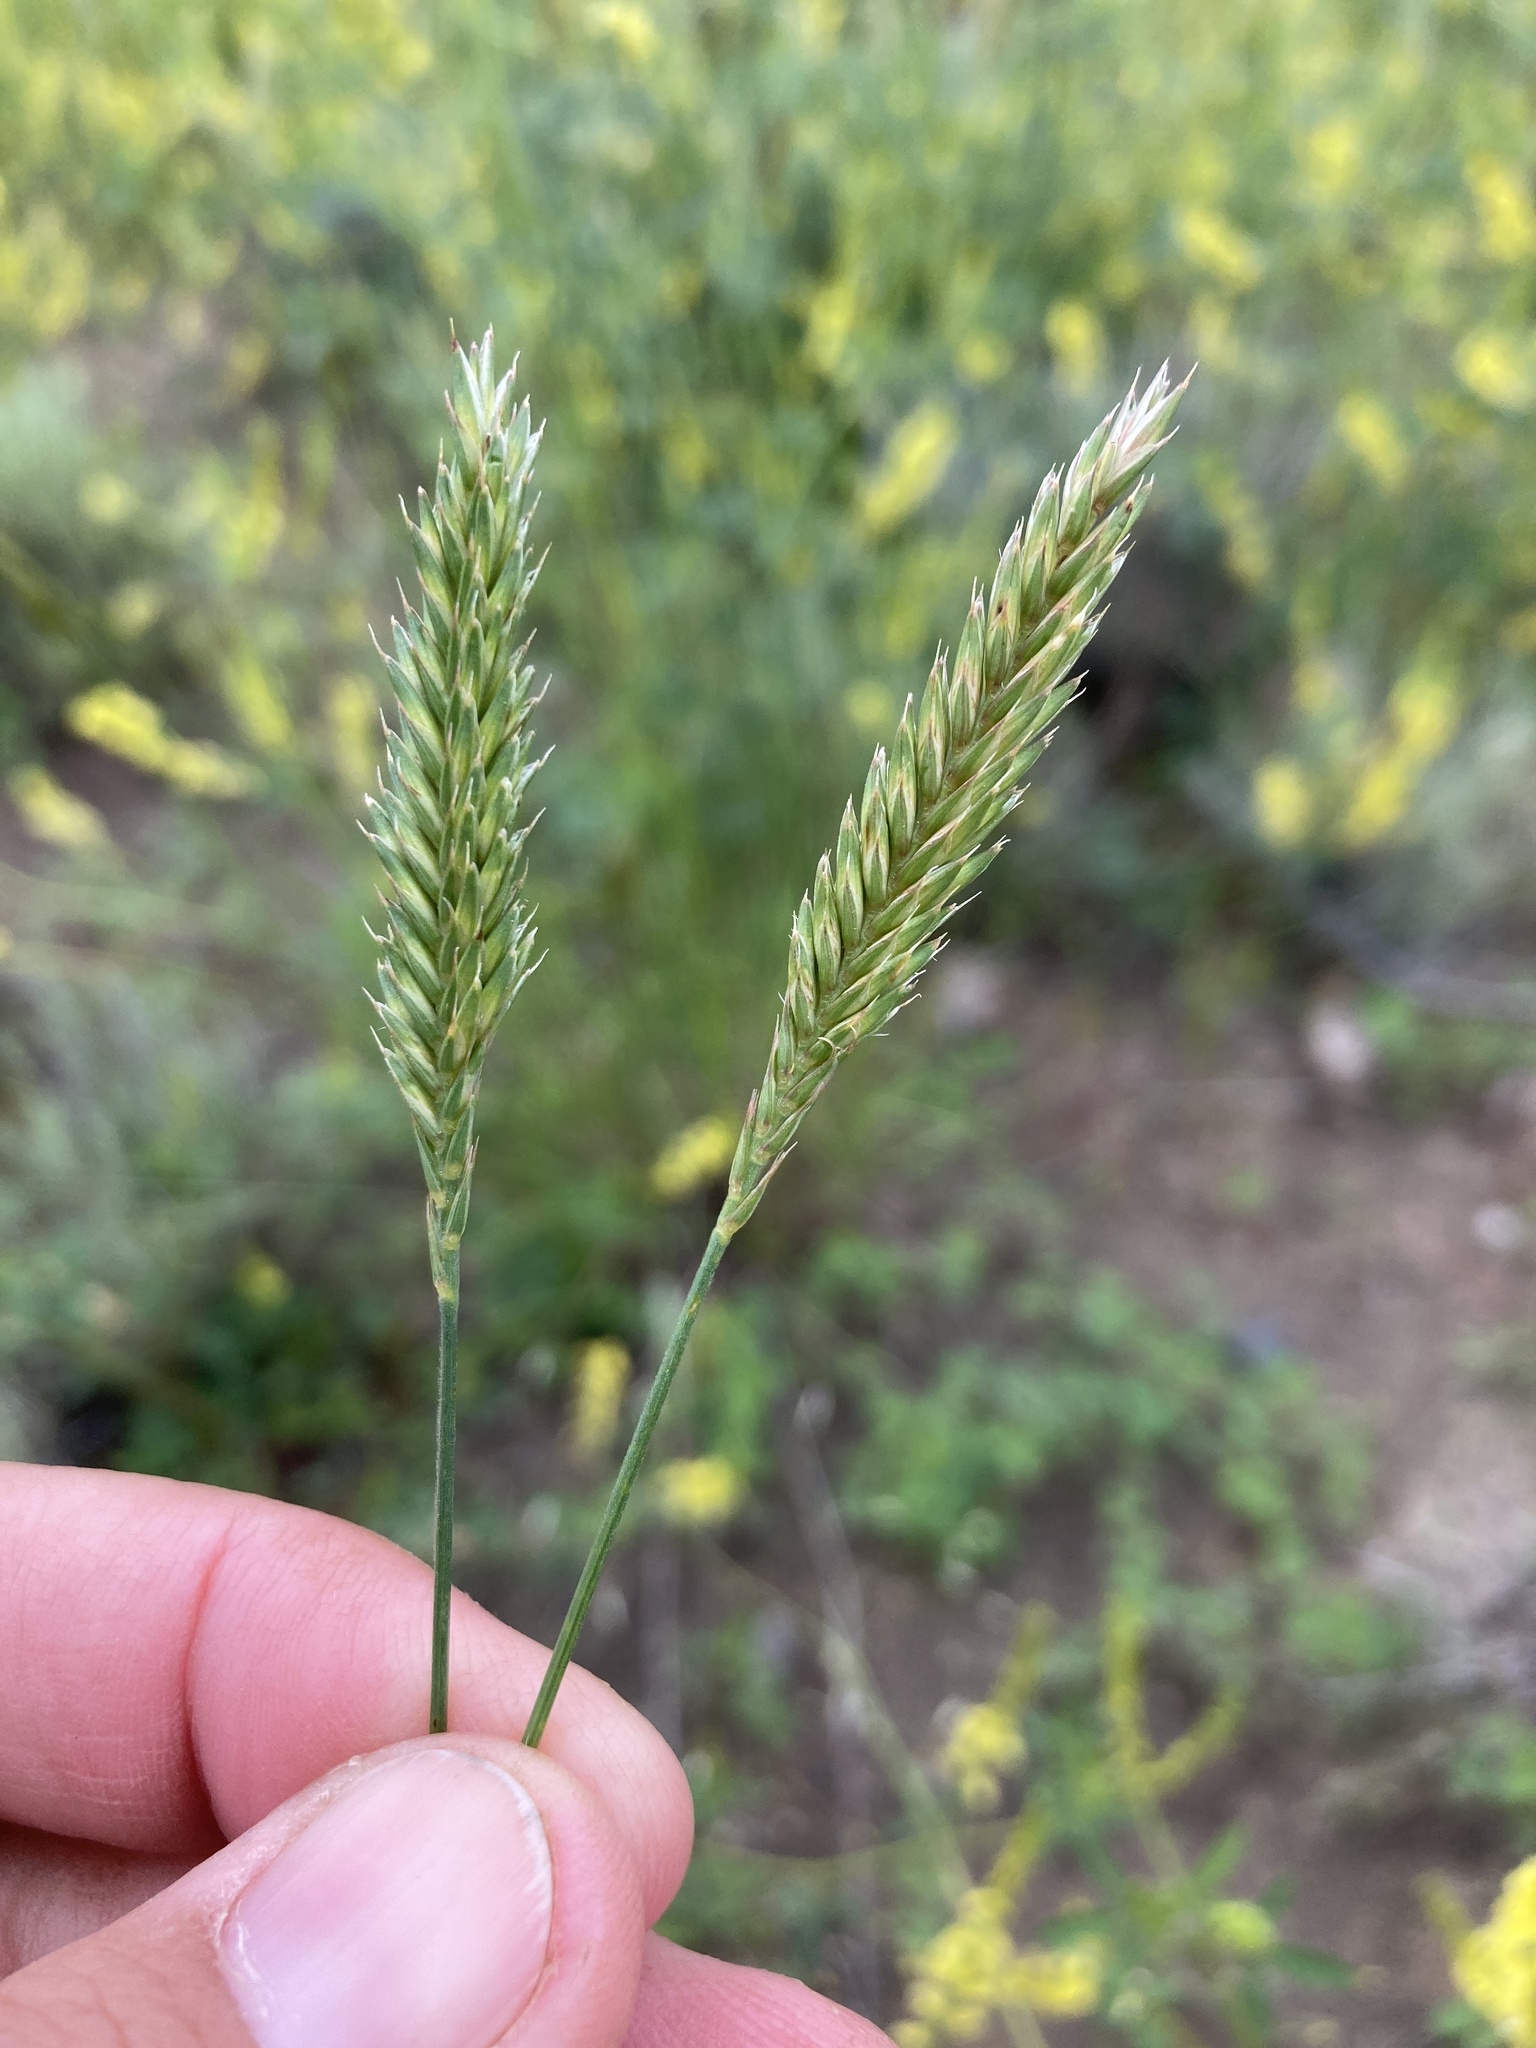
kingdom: Plantae
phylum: Tracheophyta
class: Liliopsida
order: Poales
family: Poaceae
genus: Agropyron
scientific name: Agropyron cristatum
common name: Crested wheatgrass
